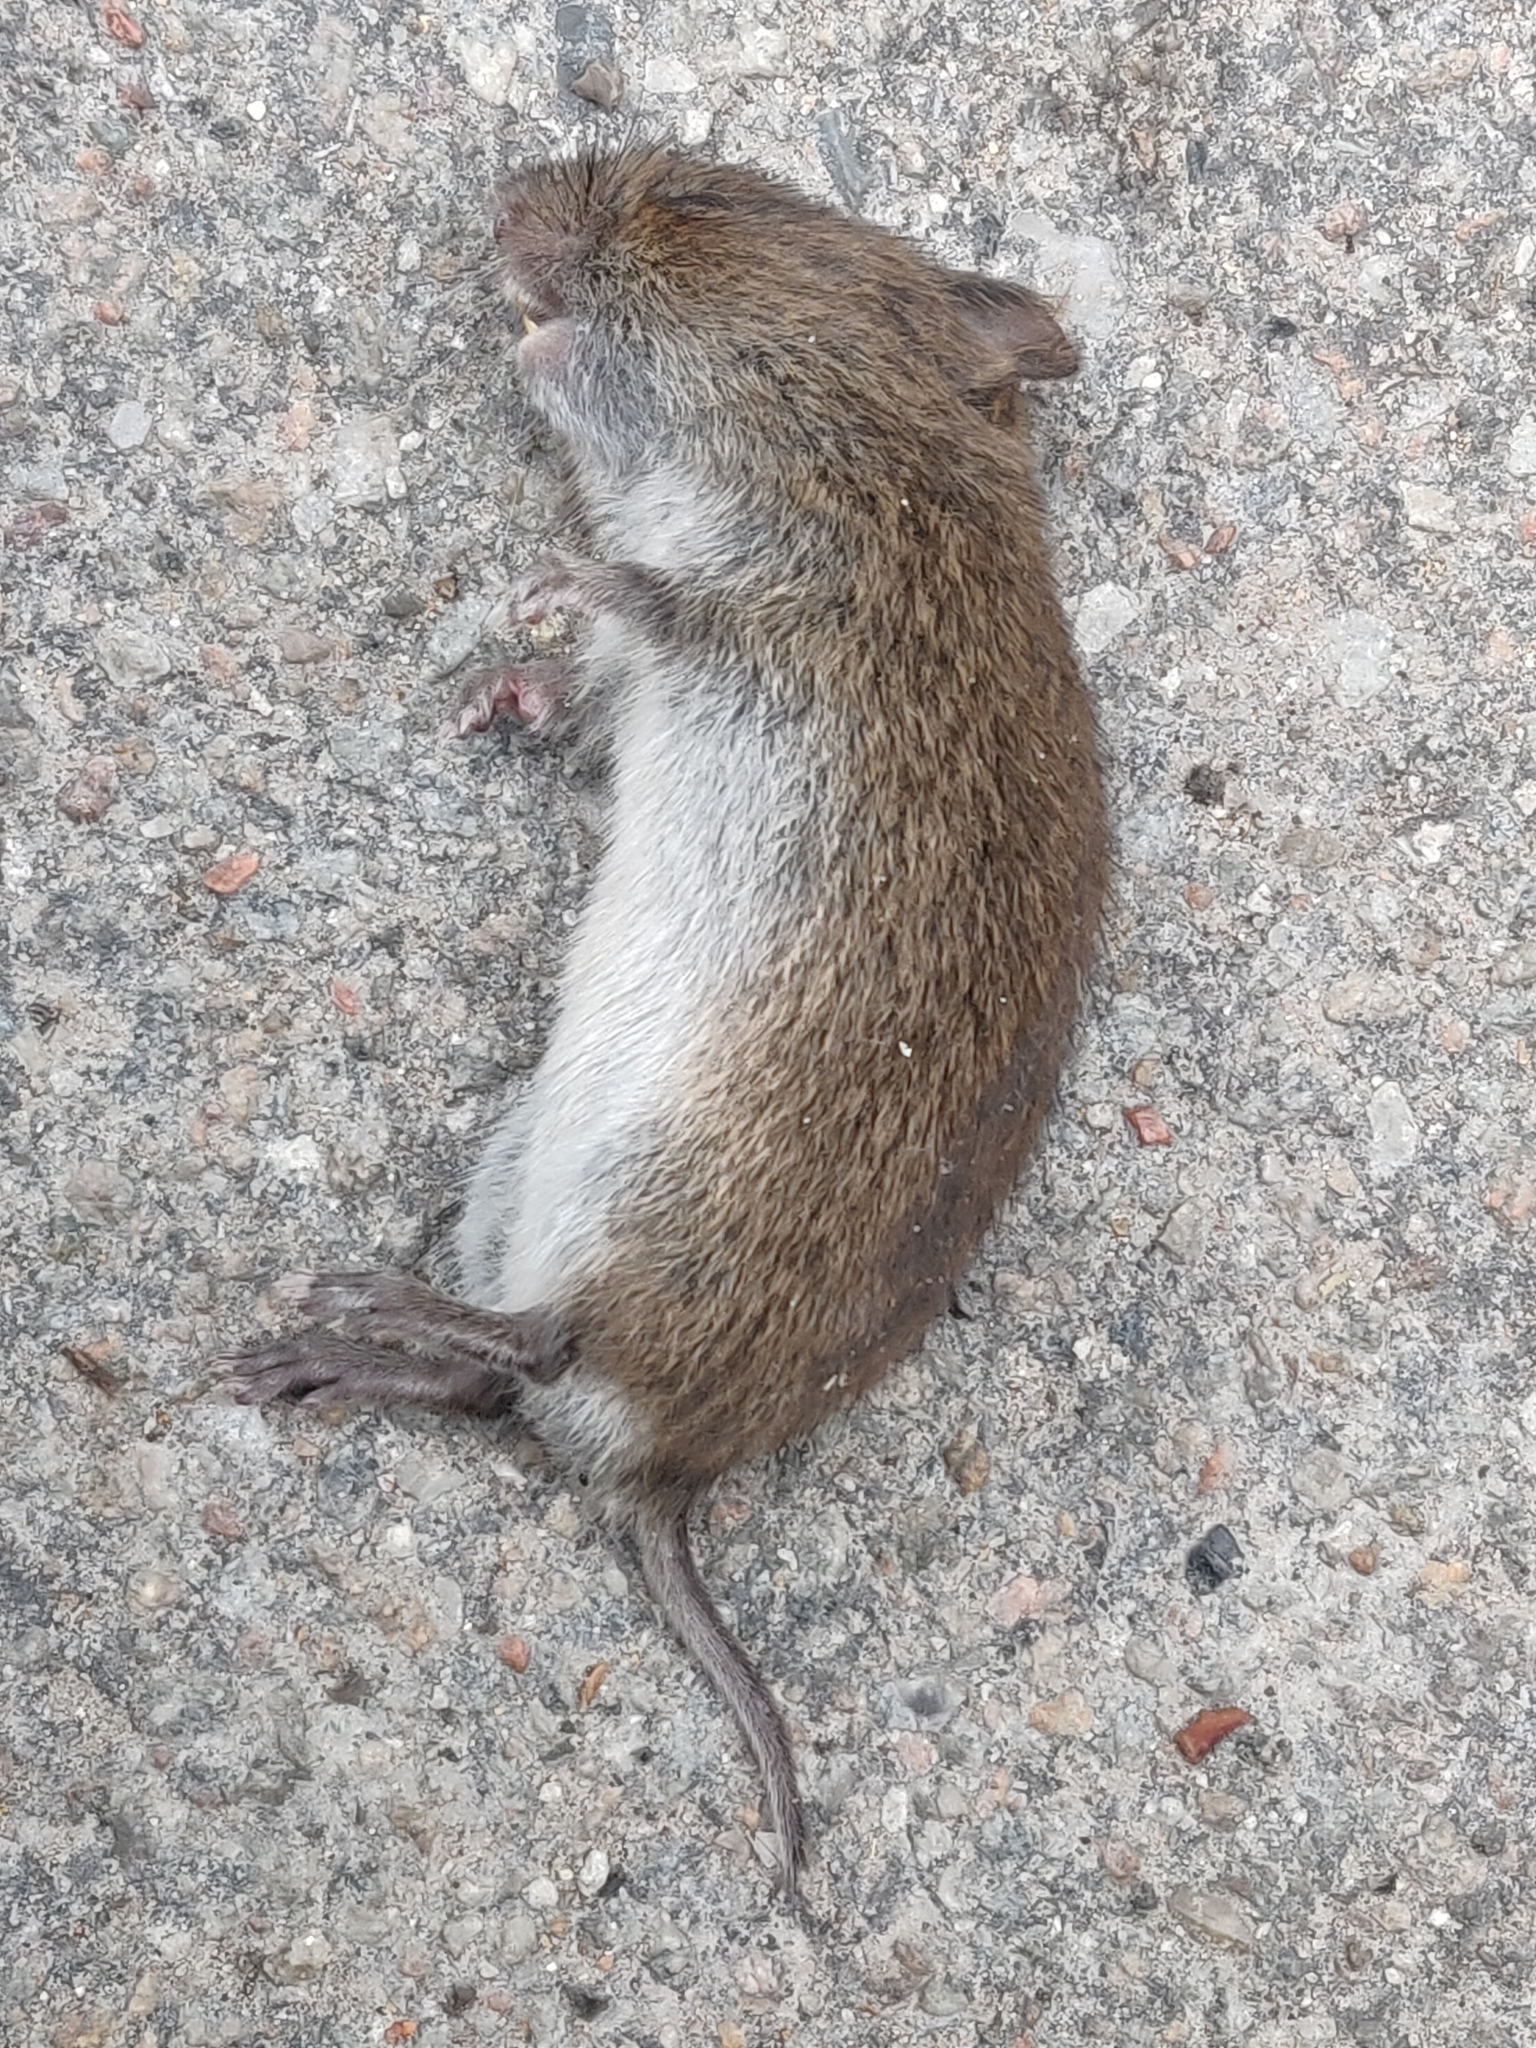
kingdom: Animalia
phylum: Chordata
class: Mammalia
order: Rodentia
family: Cricetidae
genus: Microtus
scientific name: Microtus agrestis
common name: Field vole
